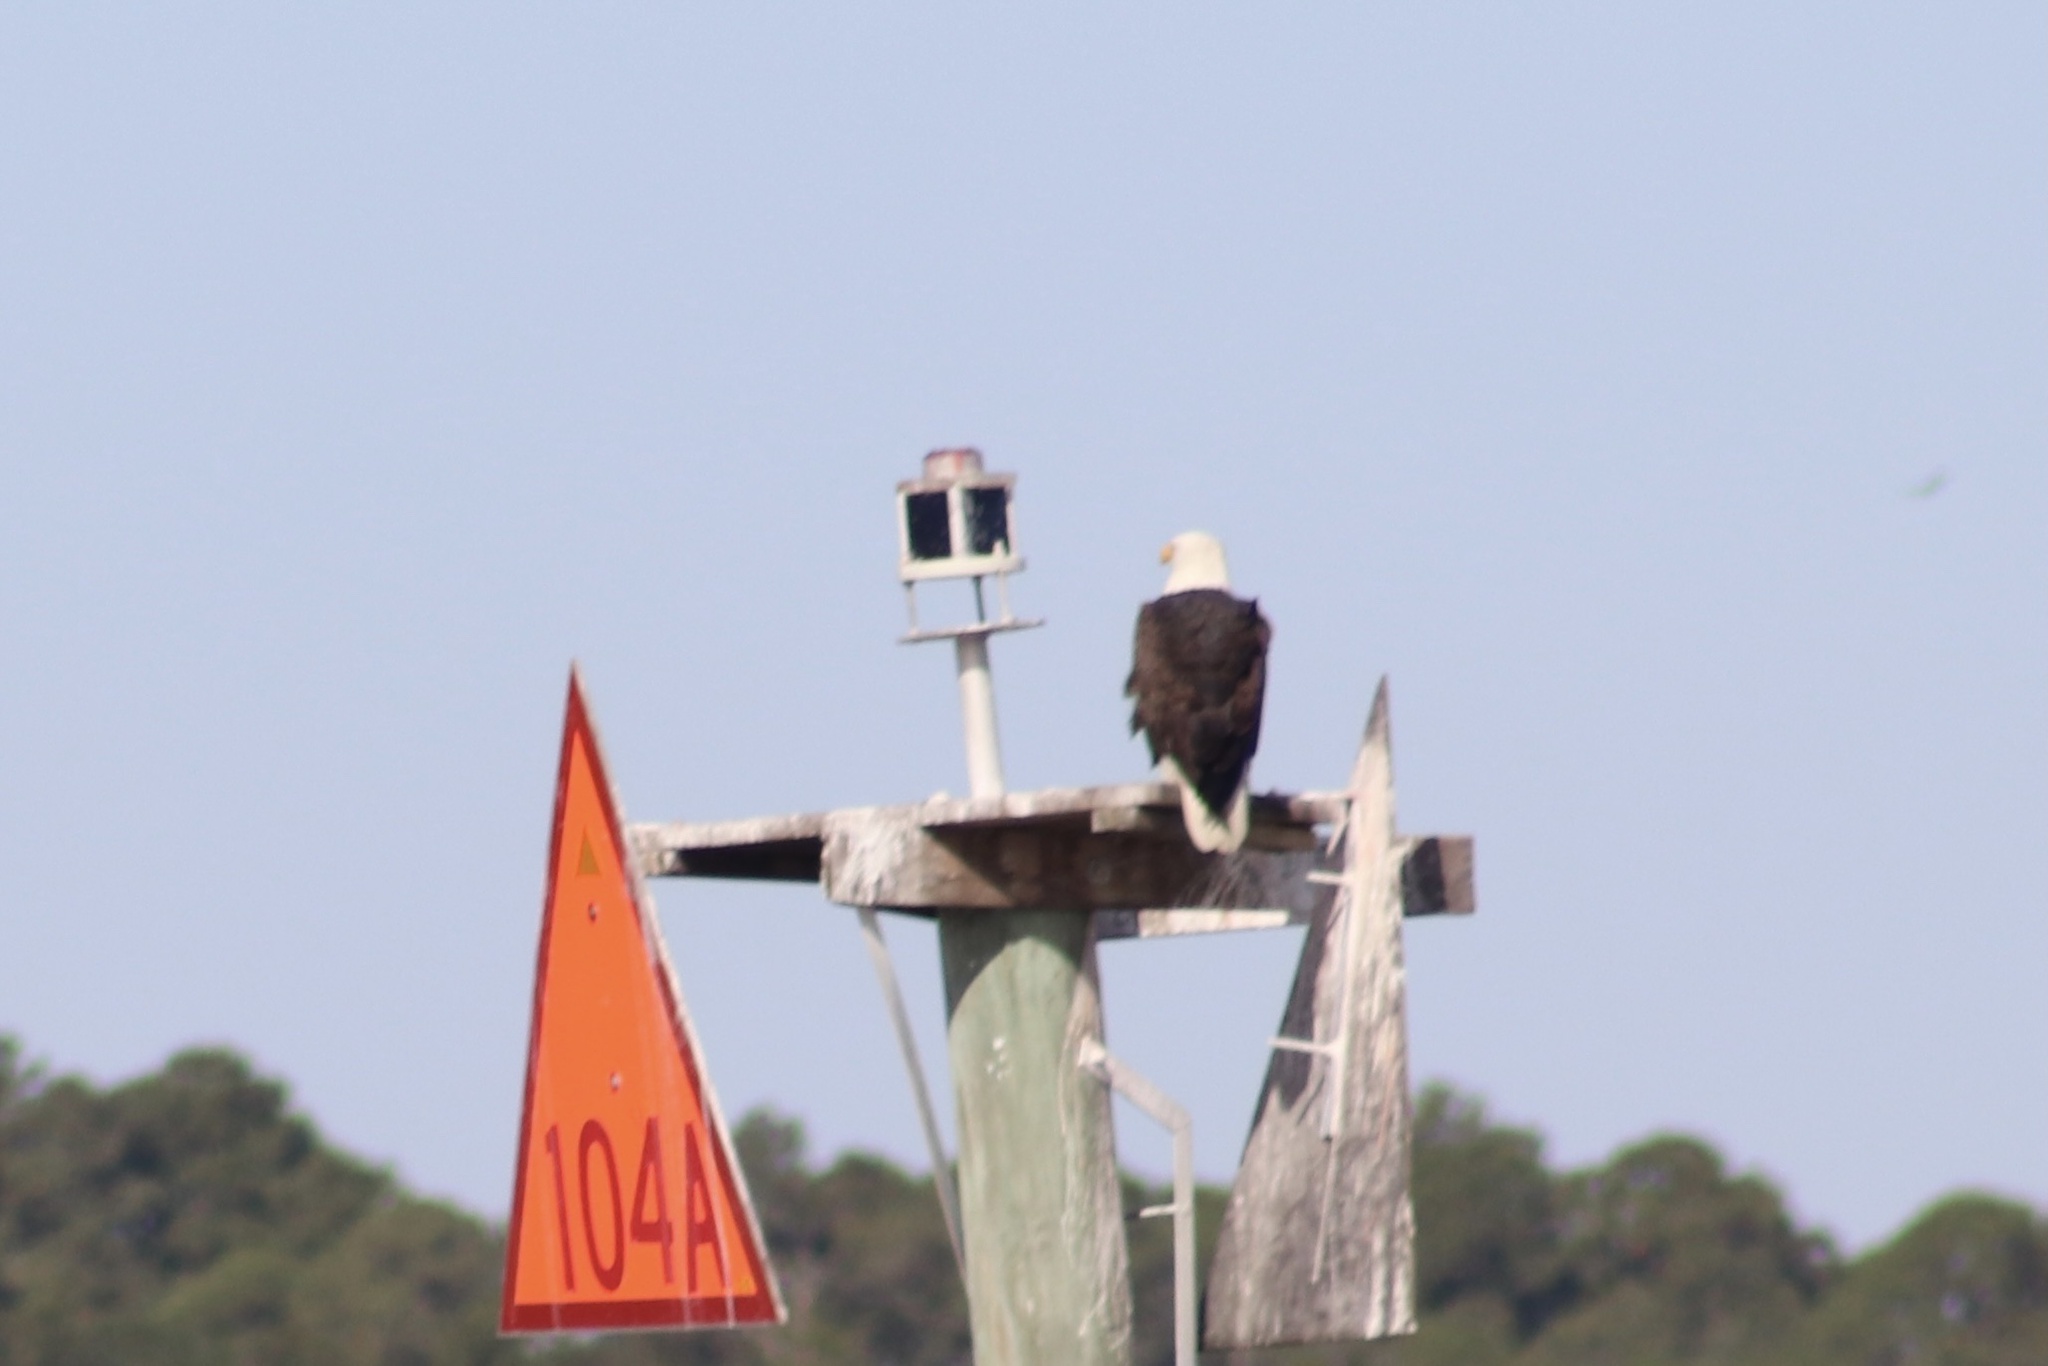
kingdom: Animalia
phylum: Chordata
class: Aves
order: Accipitriformes
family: Accipitridae
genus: Haliaeetus
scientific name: Haliaeetus leucocephalus
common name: Bald eagle
